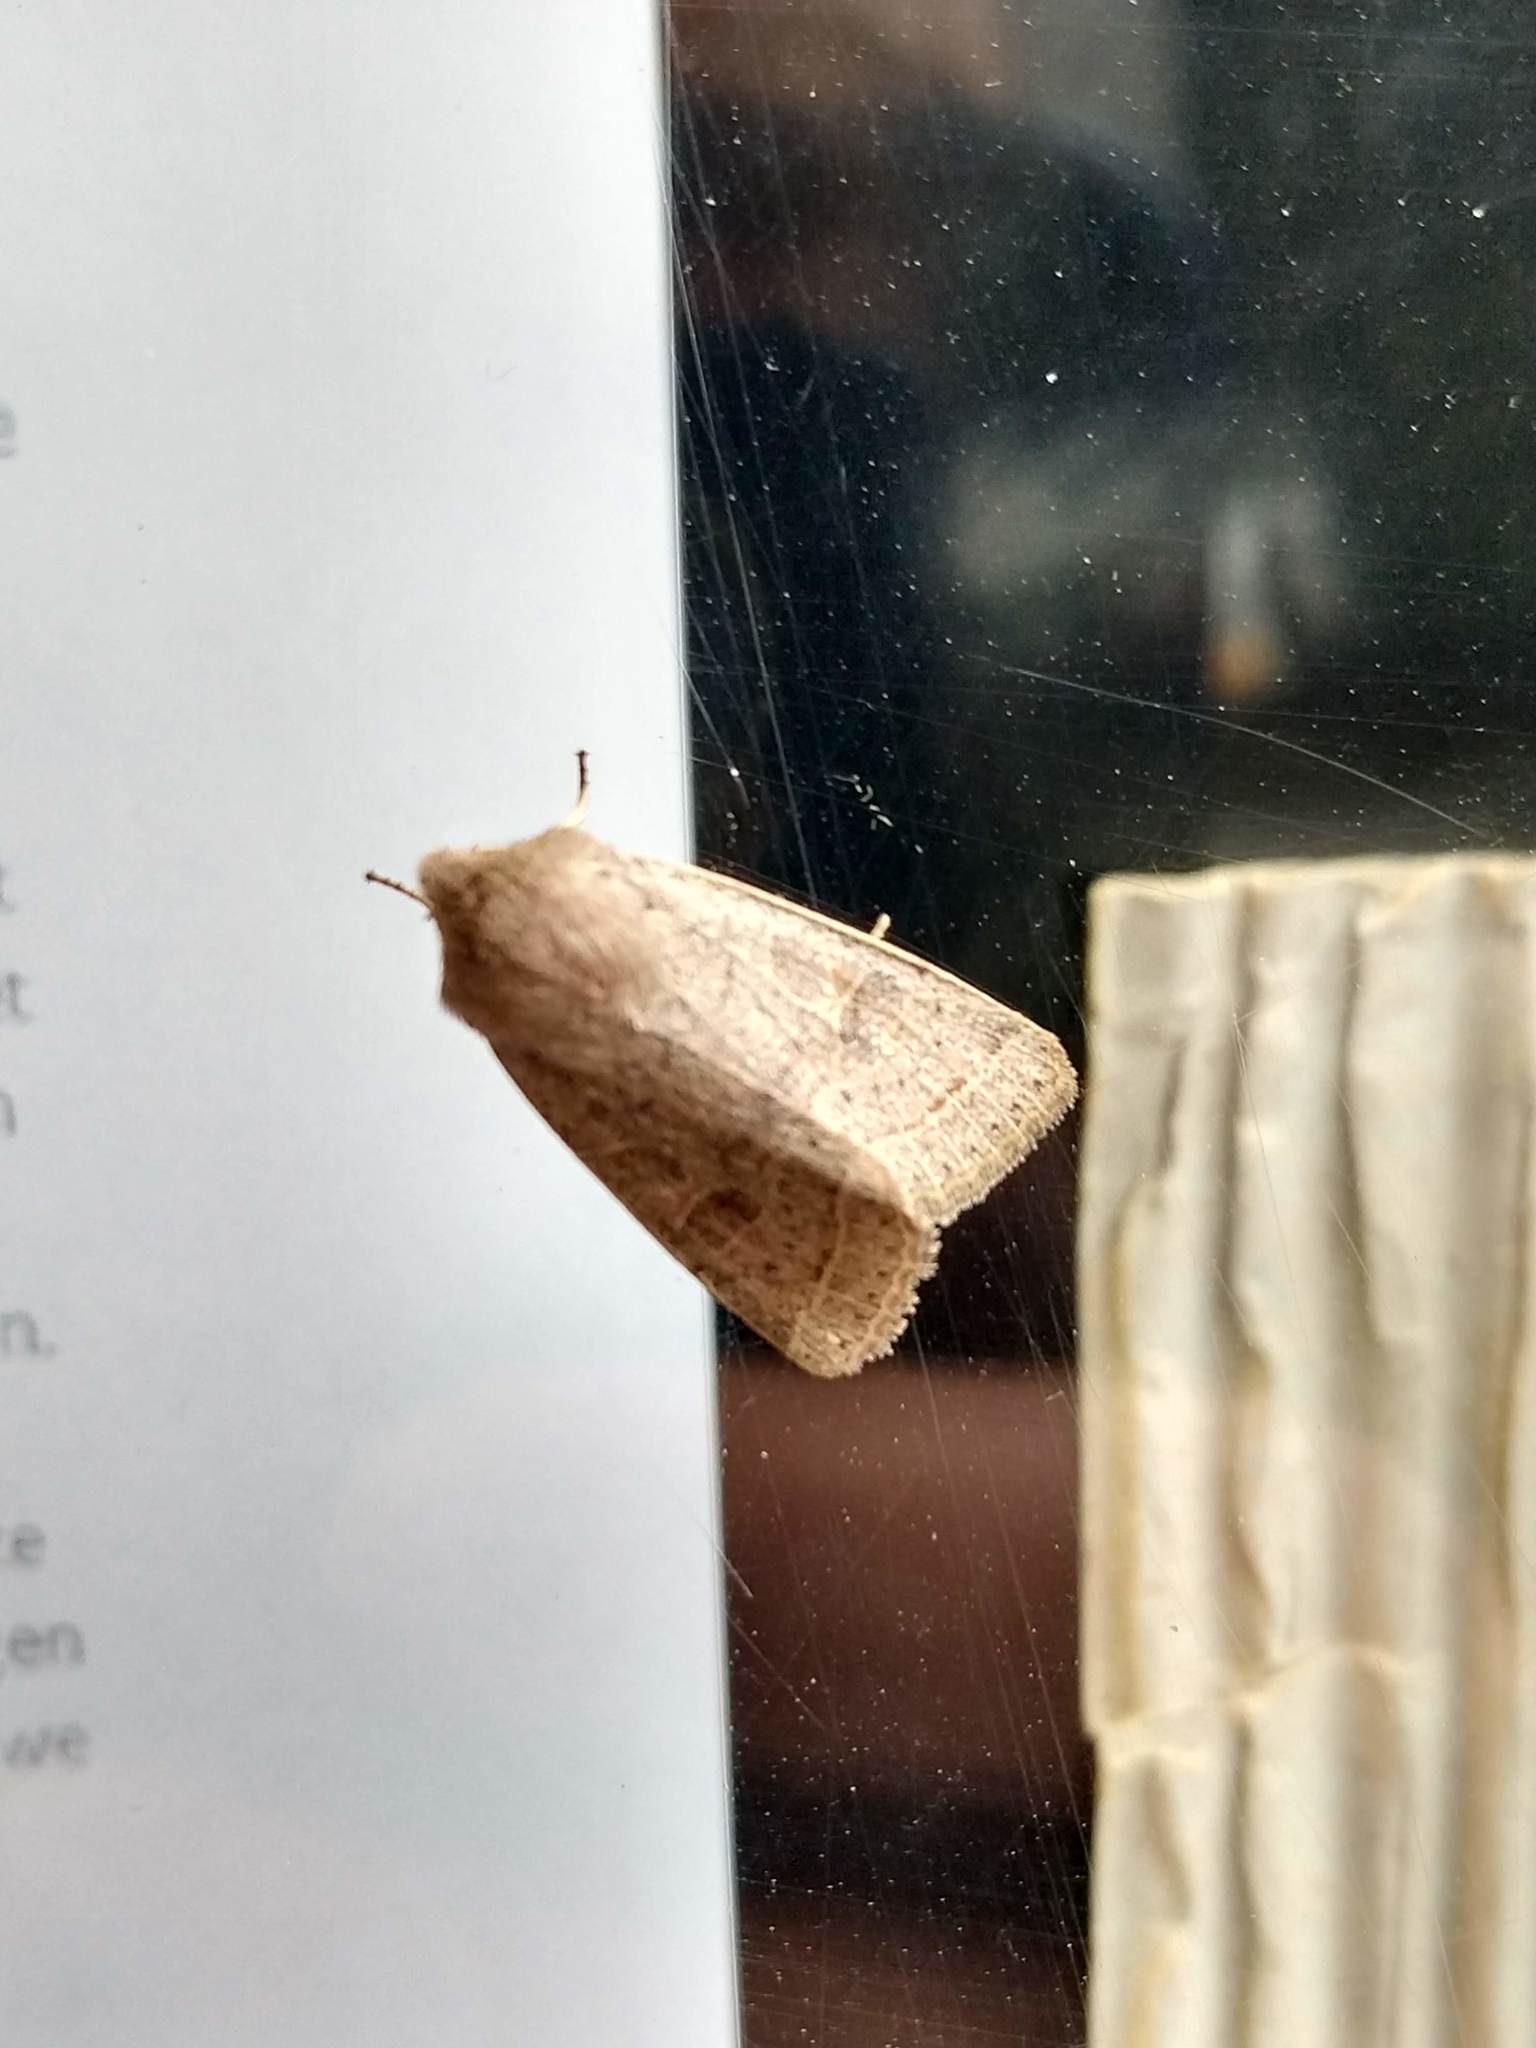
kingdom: Animalia
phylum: Arthropoda
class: Insecta
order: Lepidoptera
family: Noctuidae
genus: Orthosia
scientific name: Orthosia cerasi
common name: Common quaker
